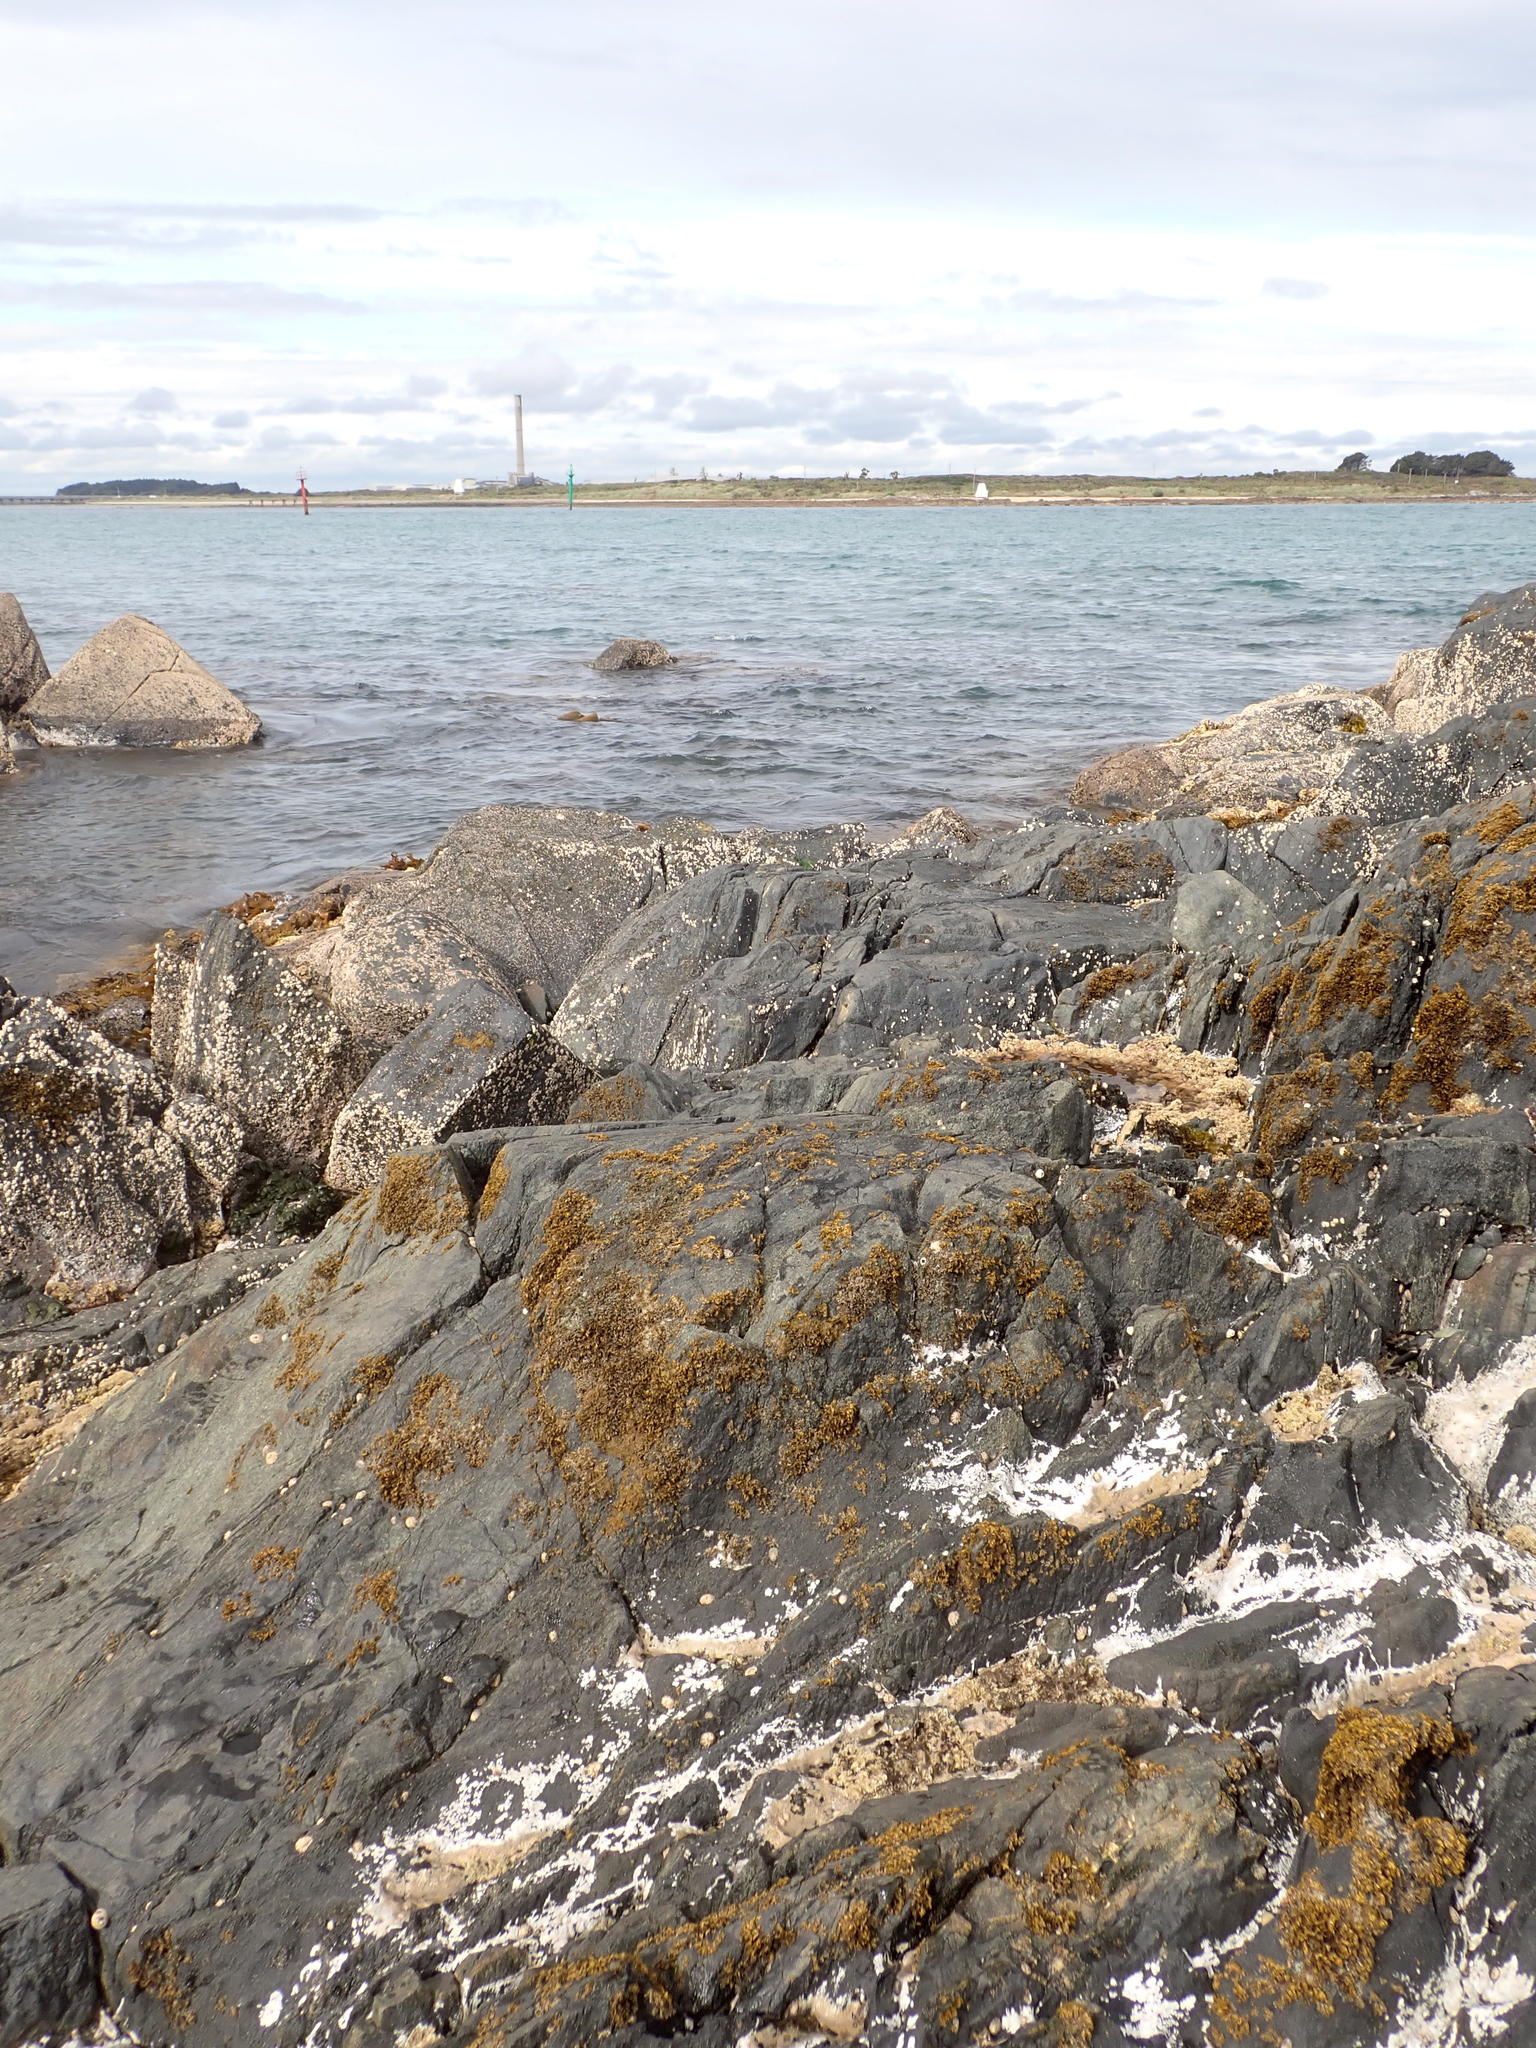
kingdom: Animalia
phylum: Mollusca
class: Bivalvia
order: Galeommatida
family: Lasaeidae
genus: Lasaea
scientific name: Lasaea hinemoa
